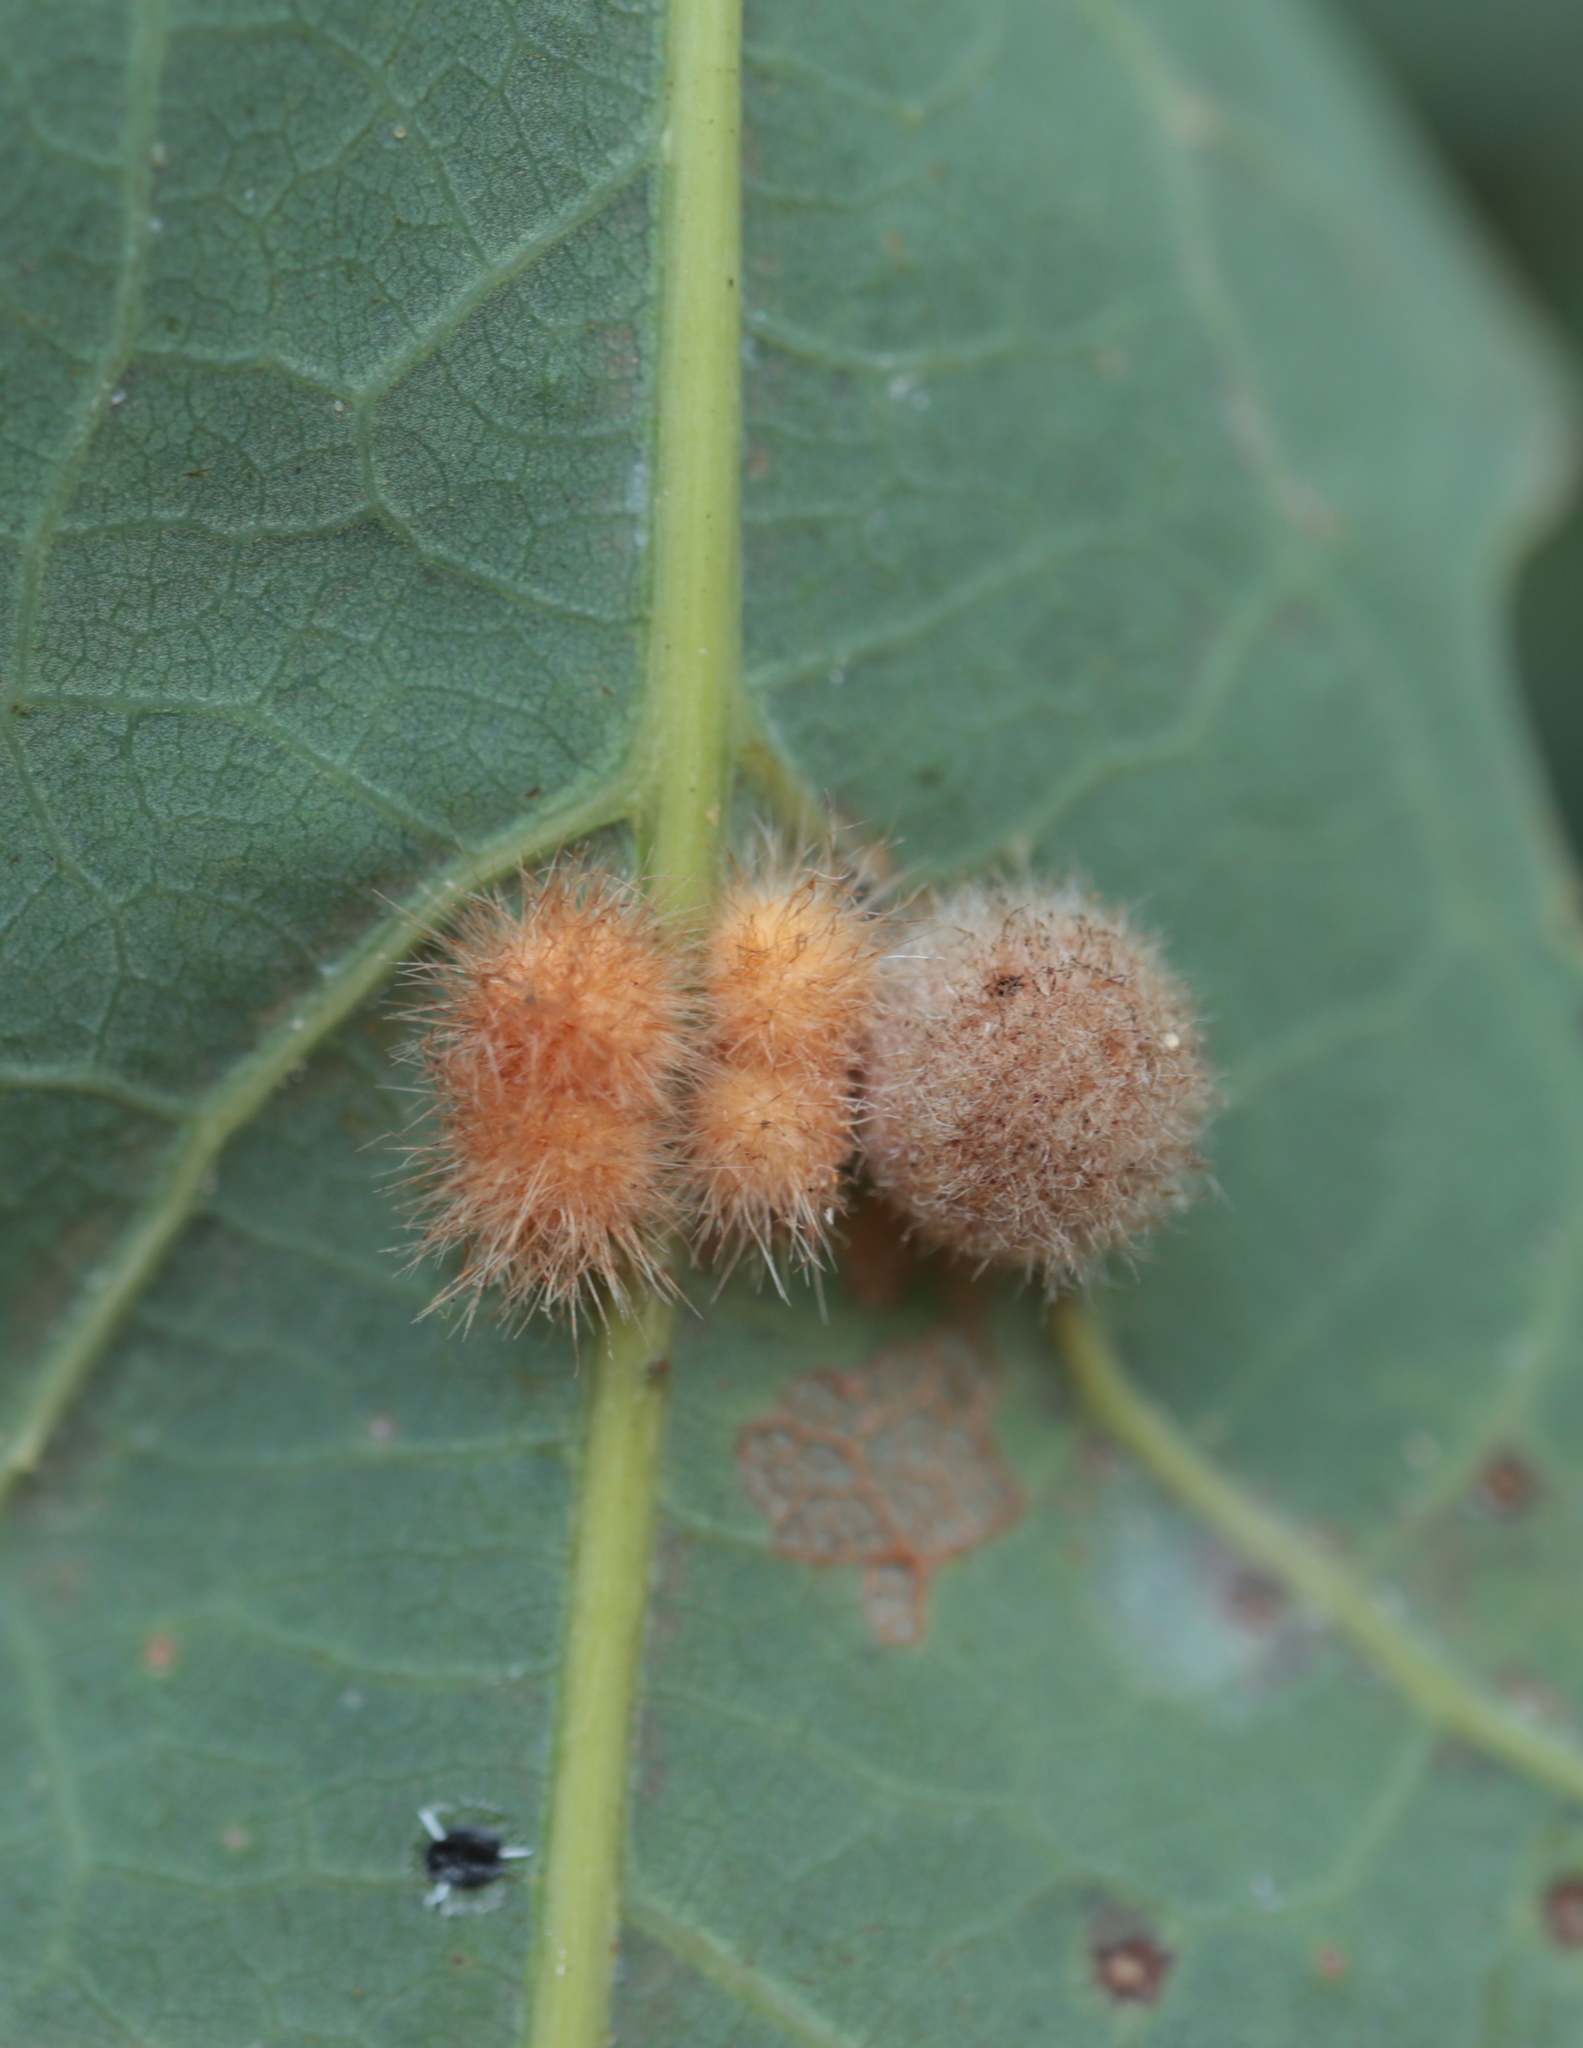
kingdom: Animalia
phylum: Arthropoda
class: Insecta
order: Hymenoptera
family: Cynipidae
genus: Andricus
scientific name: Andricus
